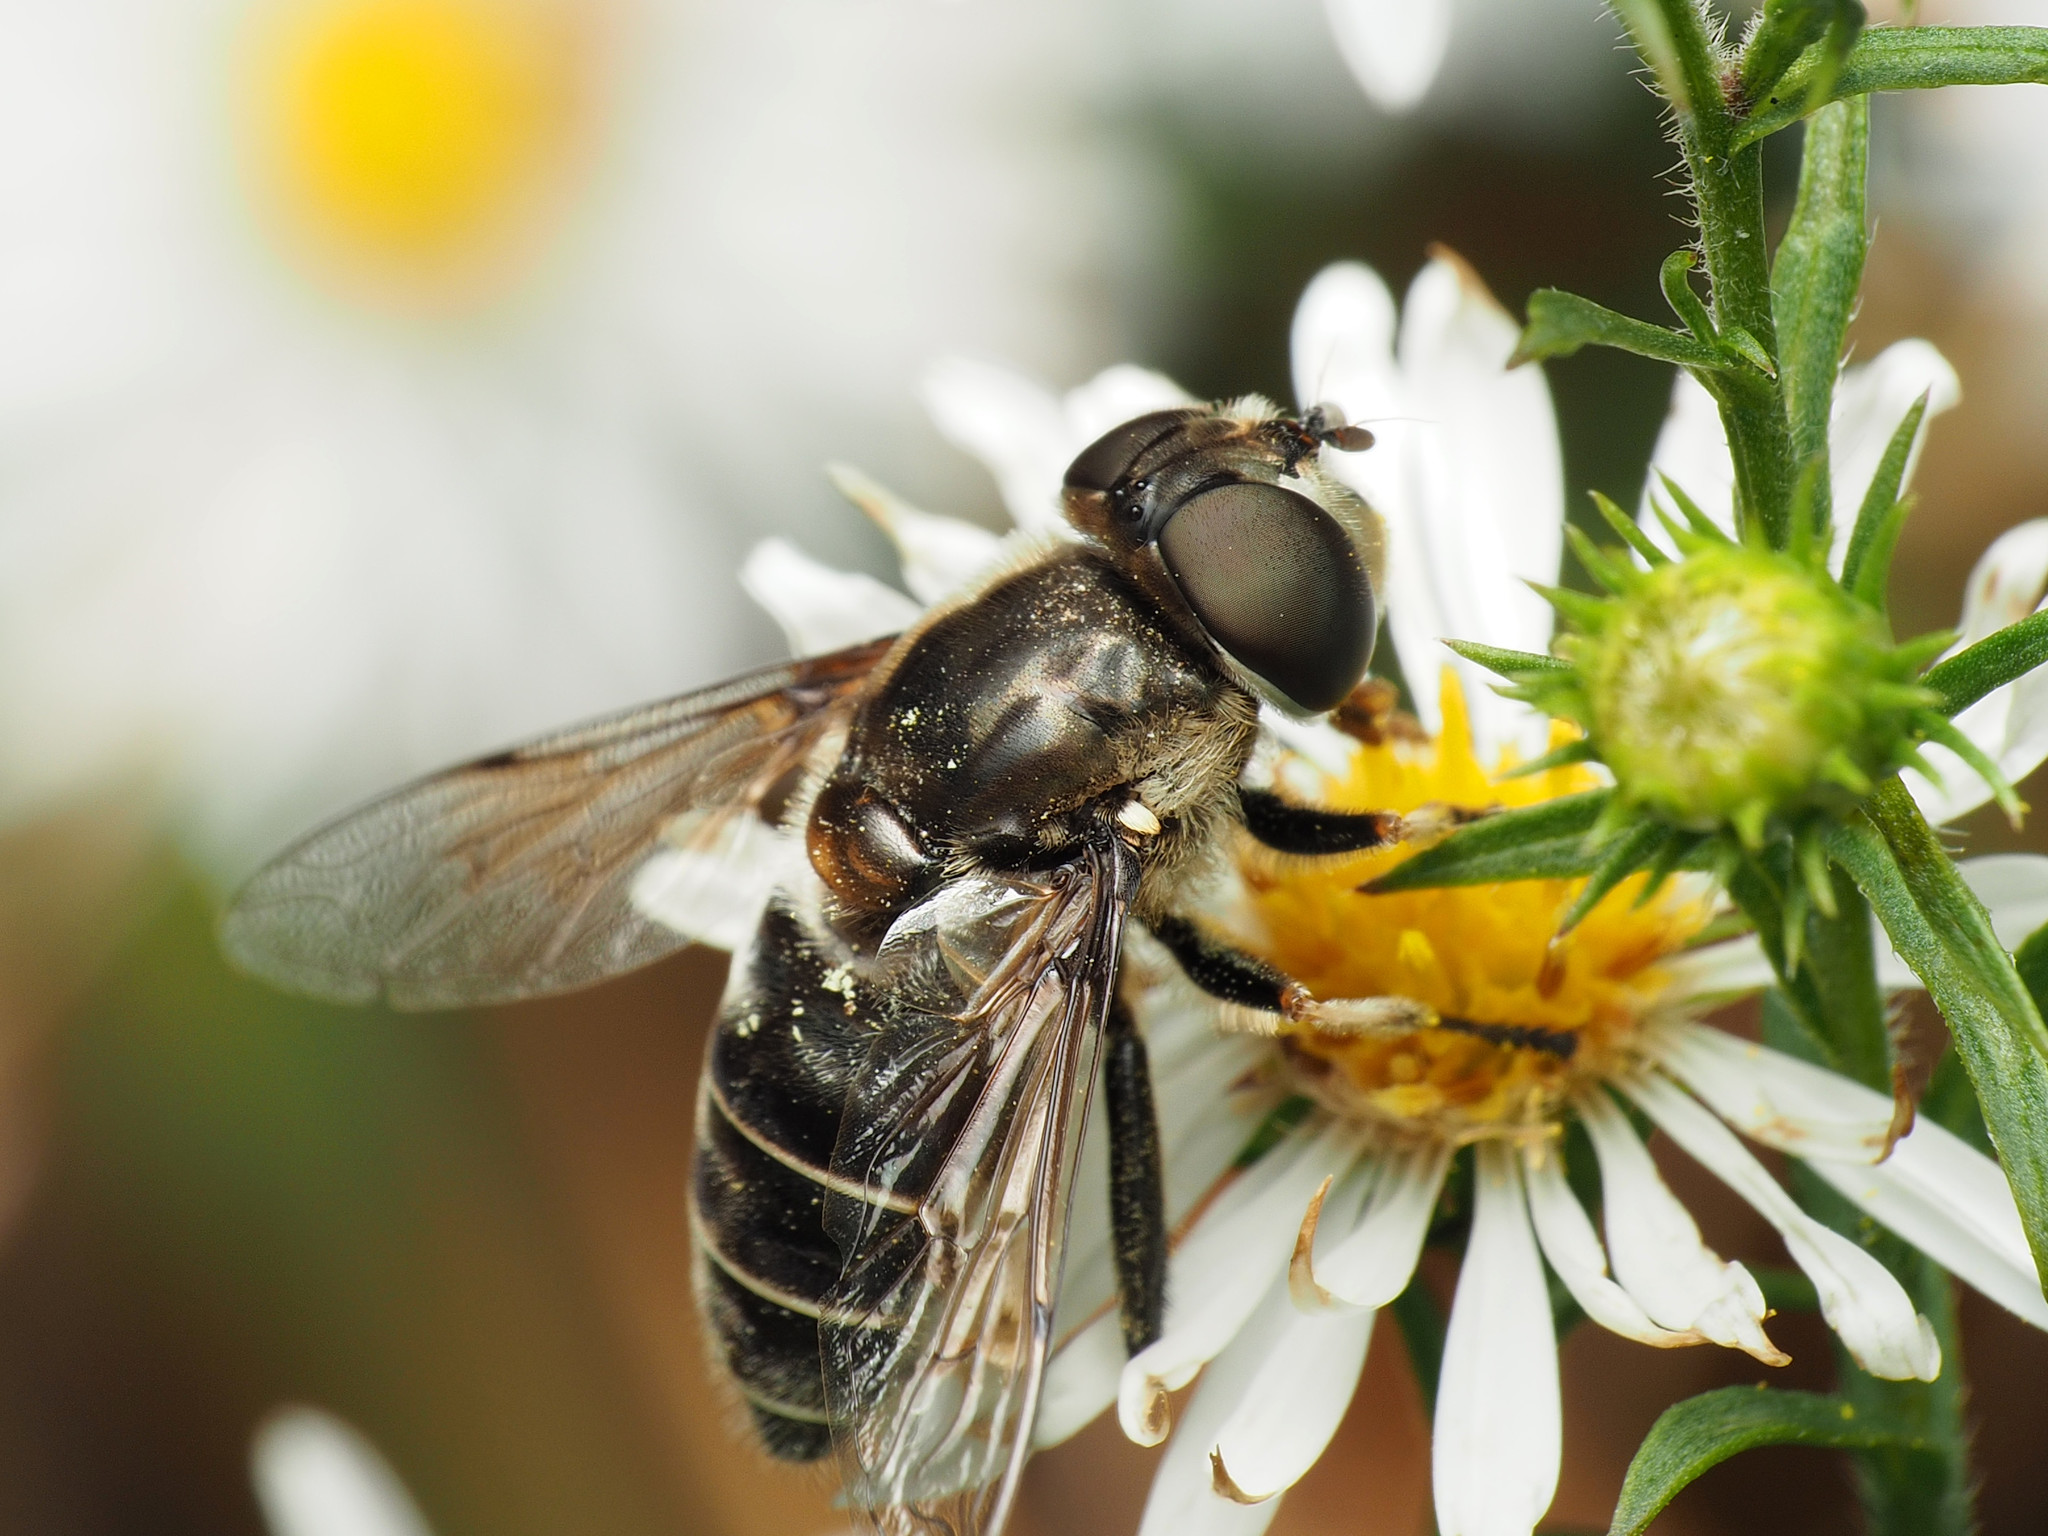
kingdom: Animalia
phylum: Arthropoda
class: Insecta
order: Diptera
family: Syrphidae
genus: Eristalis
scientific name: Eristalis dimidiata
